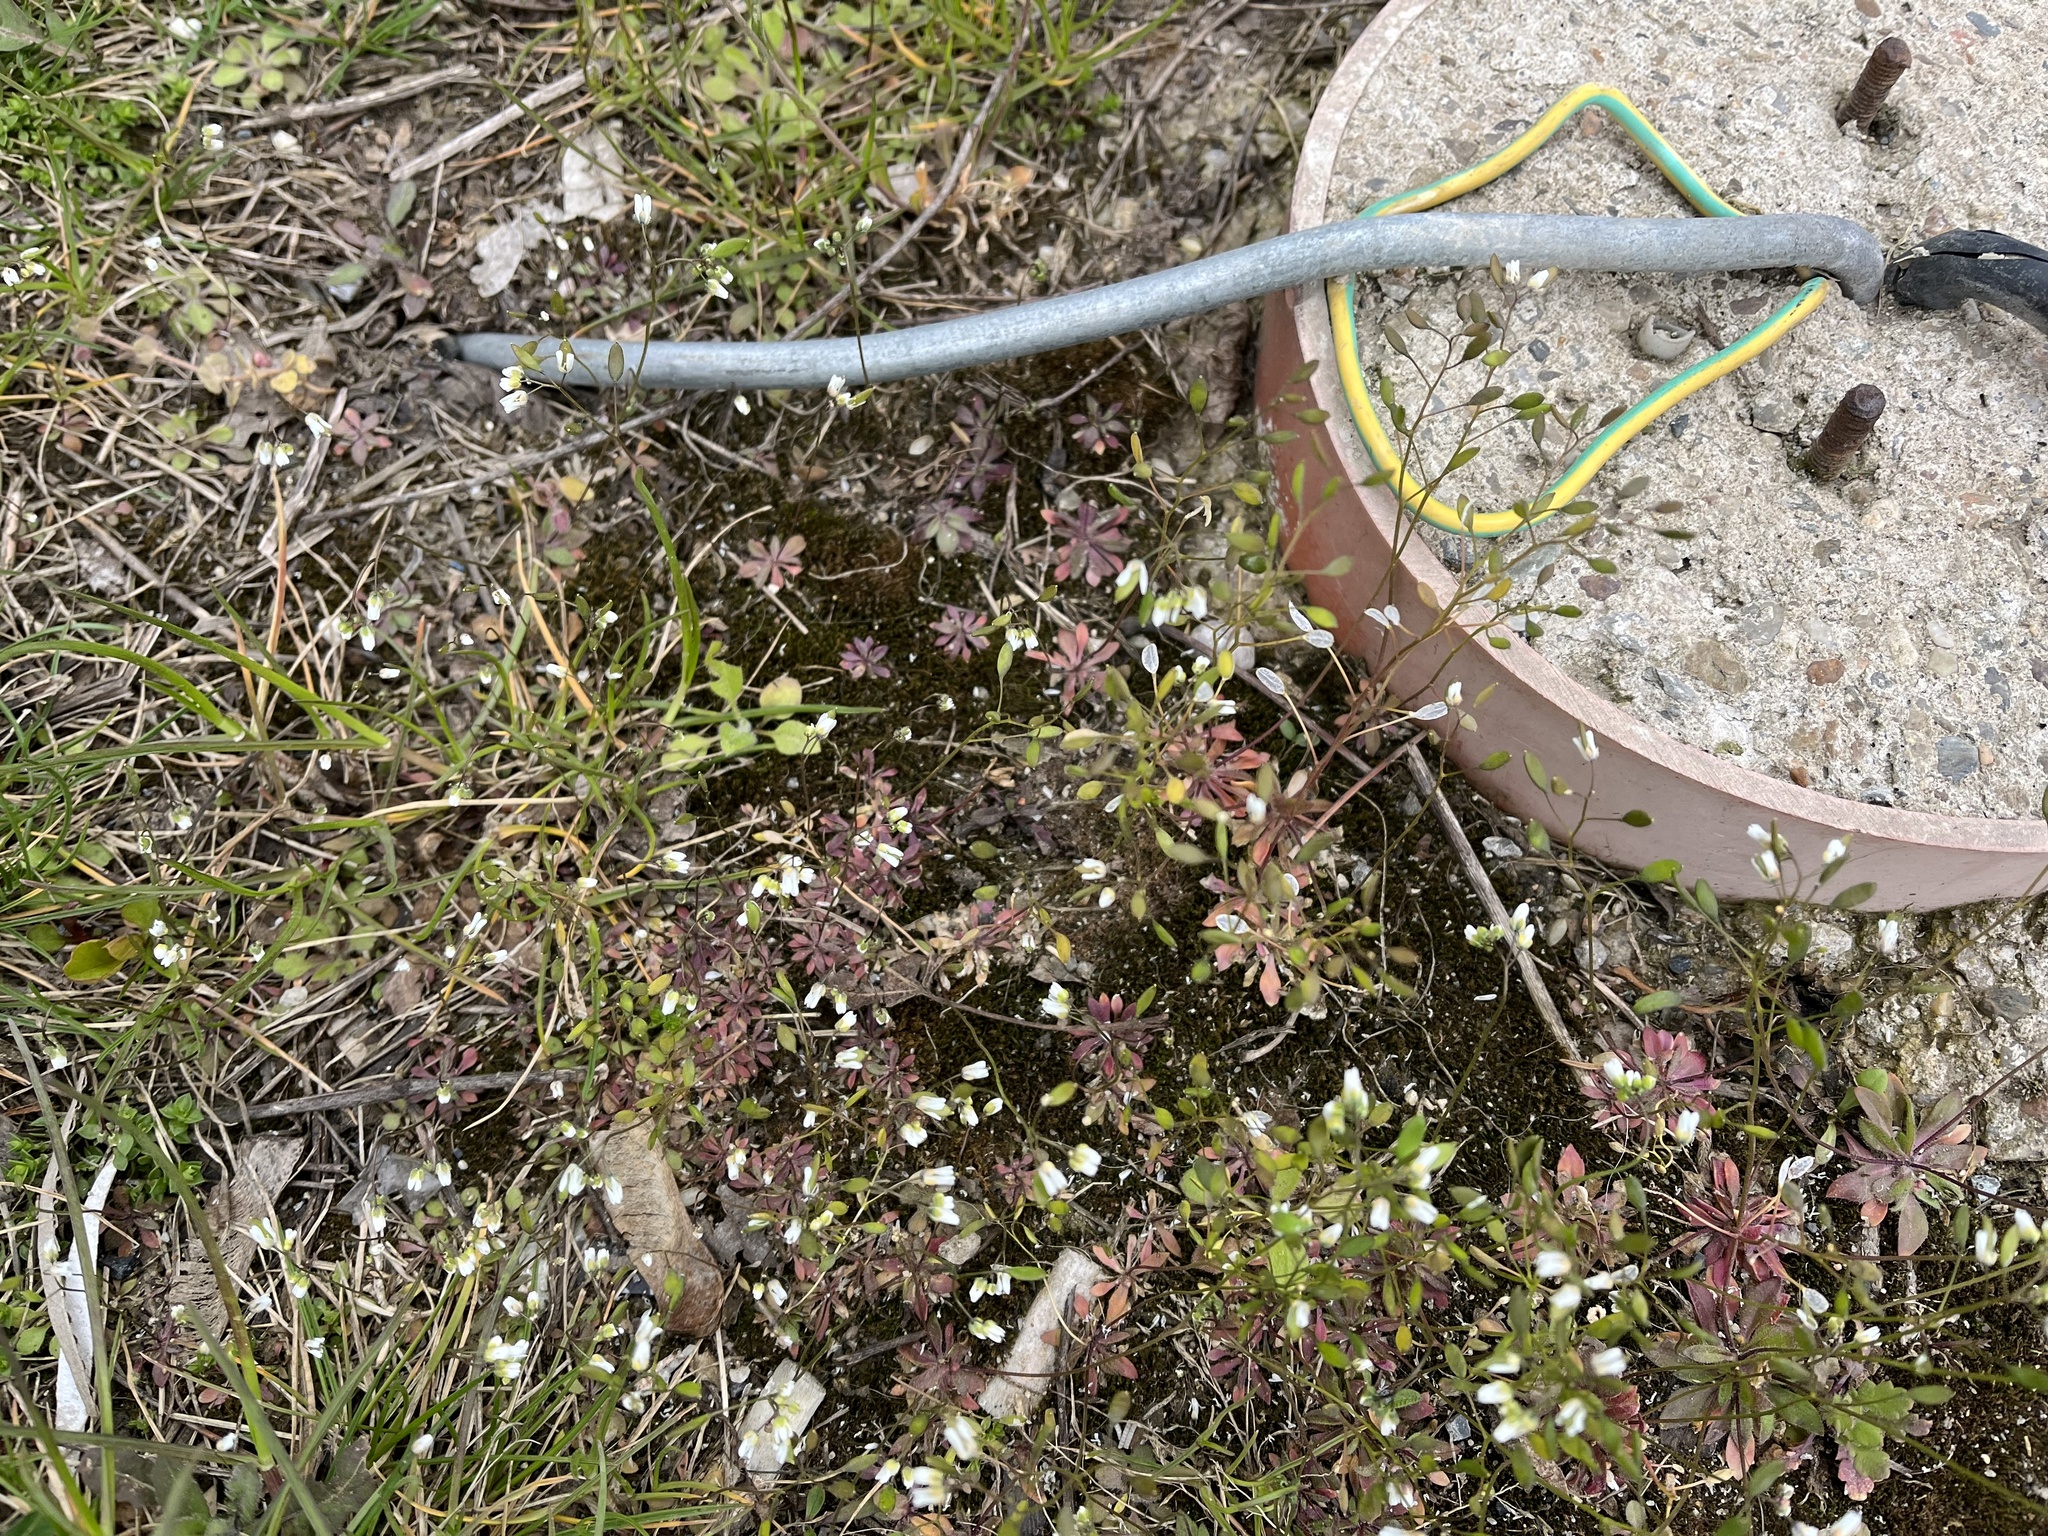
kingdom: Plantae
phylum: Tracheophyta
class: Magnoliopsida
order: Brassicales
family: Brassicaceae
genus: Draba
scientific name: Draba verna
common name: Spring draba
